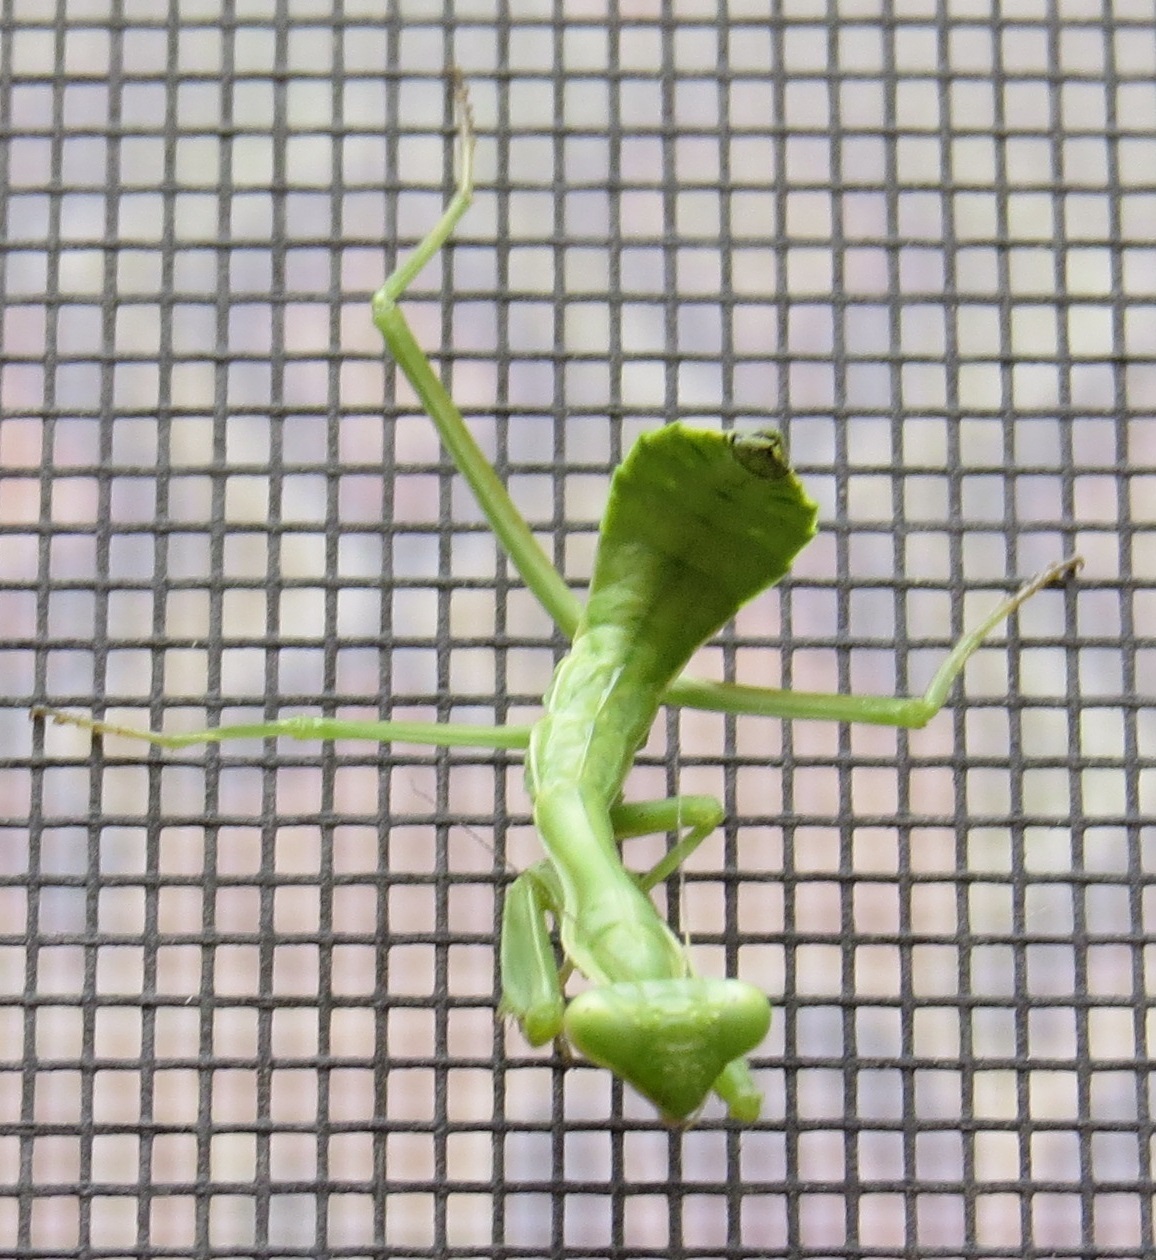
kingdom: Animalia
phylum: Arthropoda
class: Insecta
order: Mantodea
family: Mantidae
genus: Stagmomantis
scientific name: Stagmomantis californica
